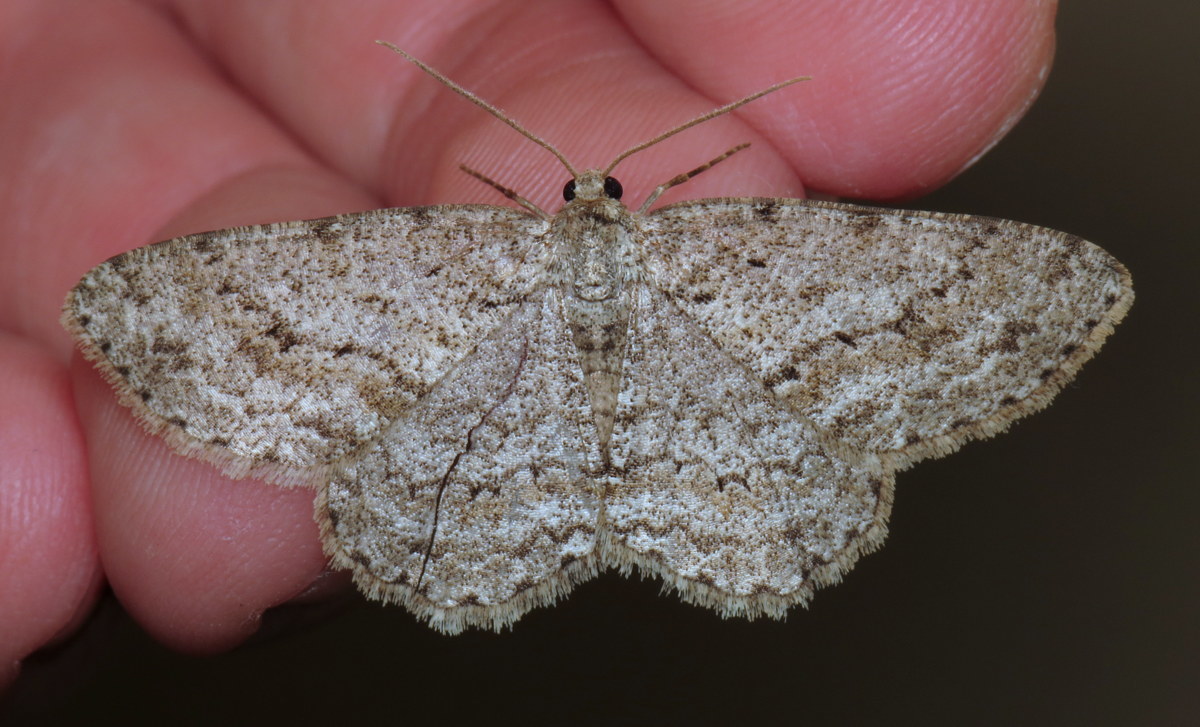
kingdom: Animalia
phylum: Arthropoda
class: Insecta
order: Lepidoptera
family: Geometridae
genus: Ectropis
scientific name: Ectropis crepuscularia
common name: Engrailed
